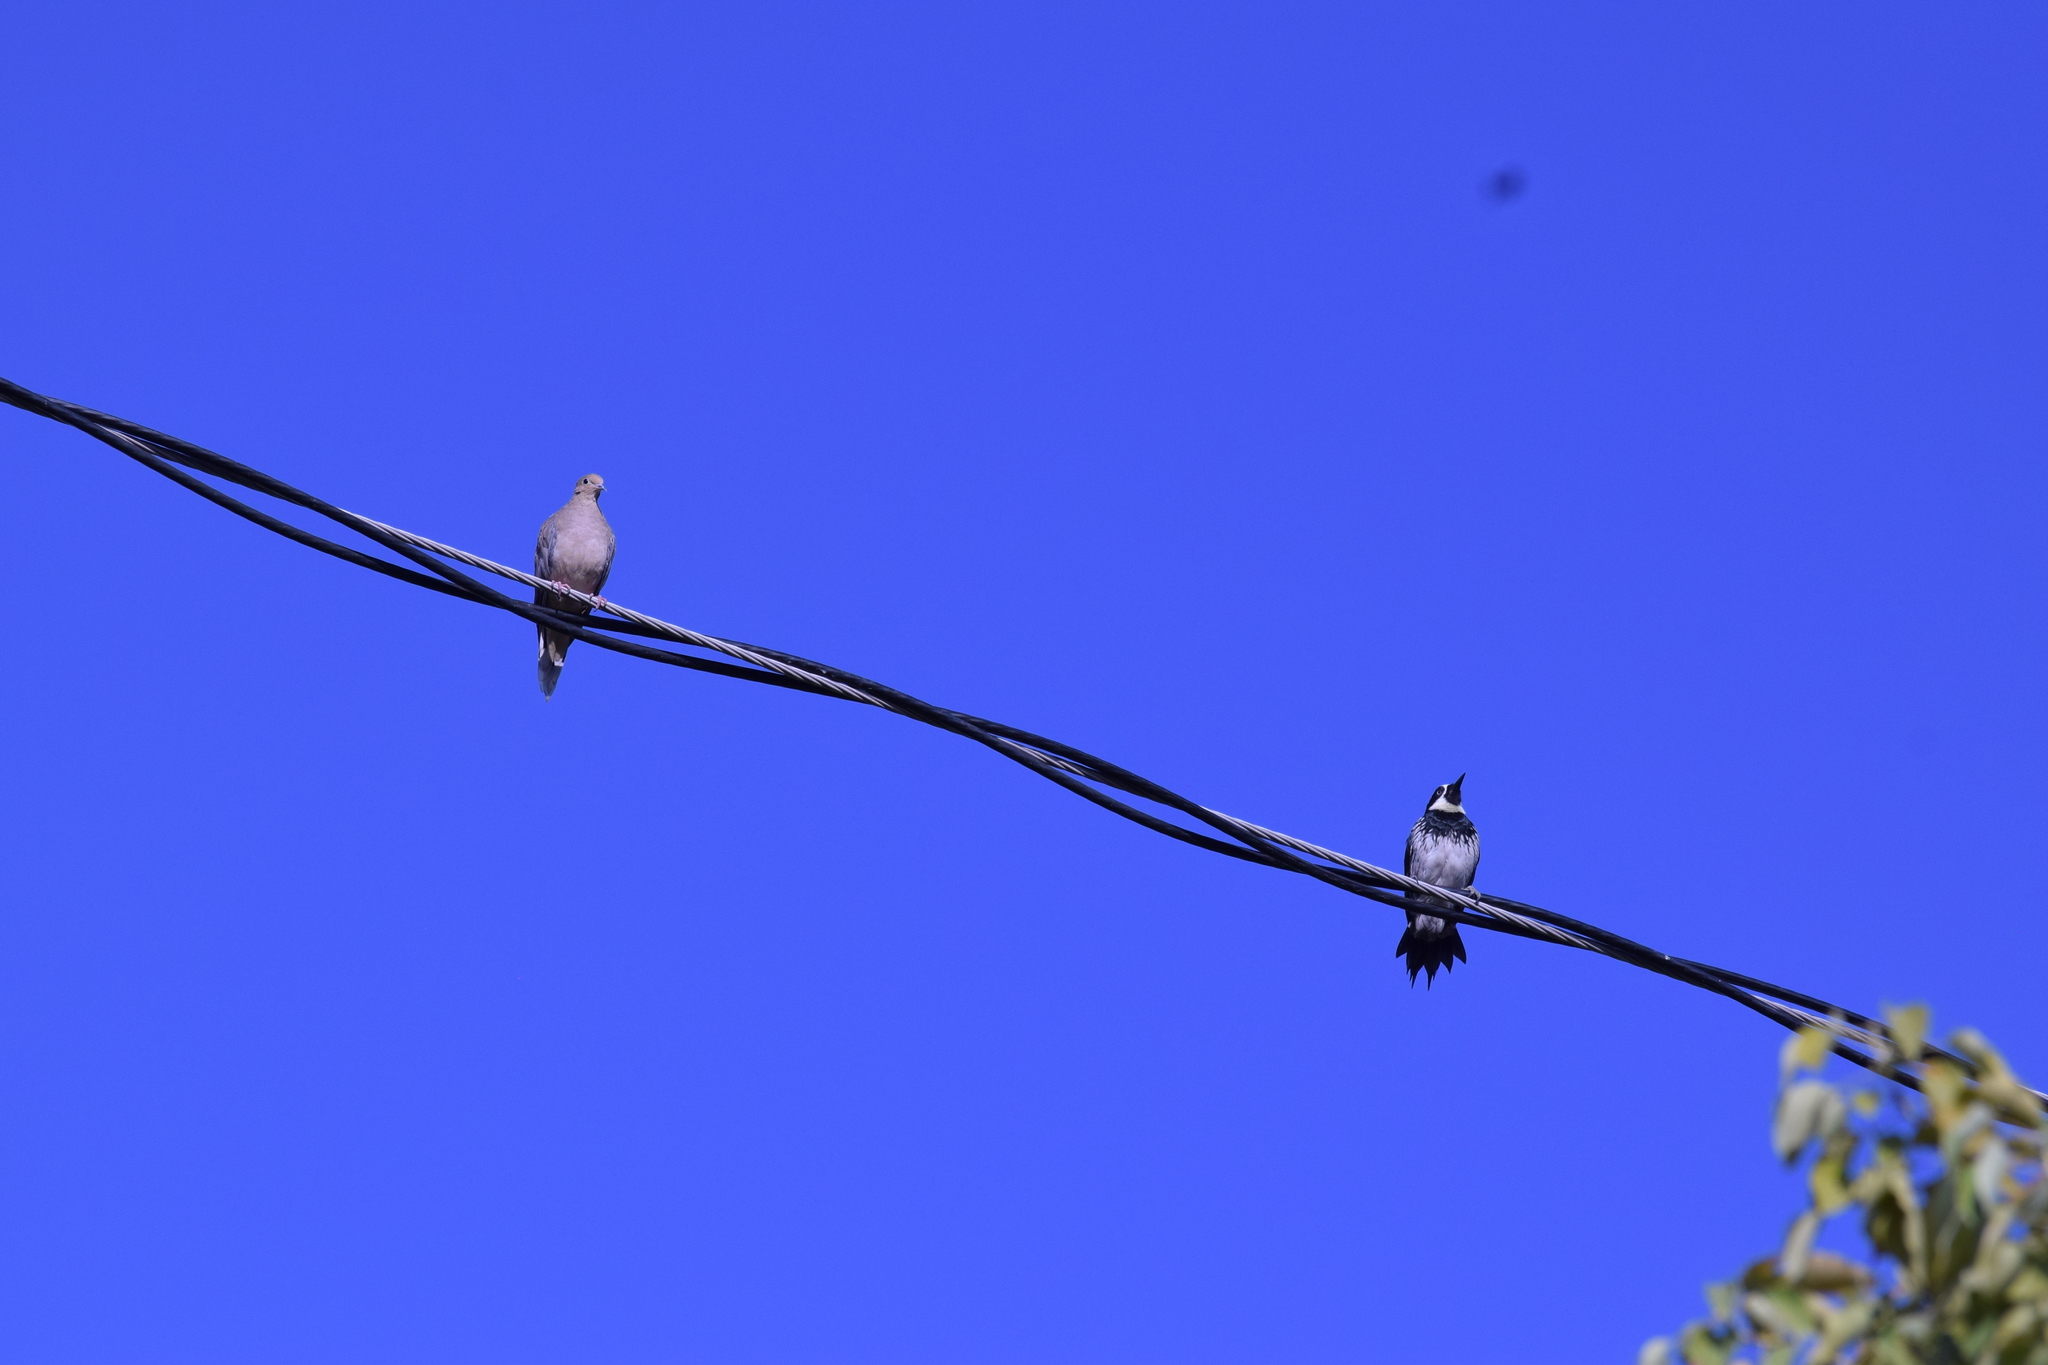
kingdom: Animalia
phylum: Chordata
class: Aves
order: Piciformes
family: Picidae
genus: Melanerpes
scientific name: Melanerpes formicivorus
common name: Acorn woodpecker
